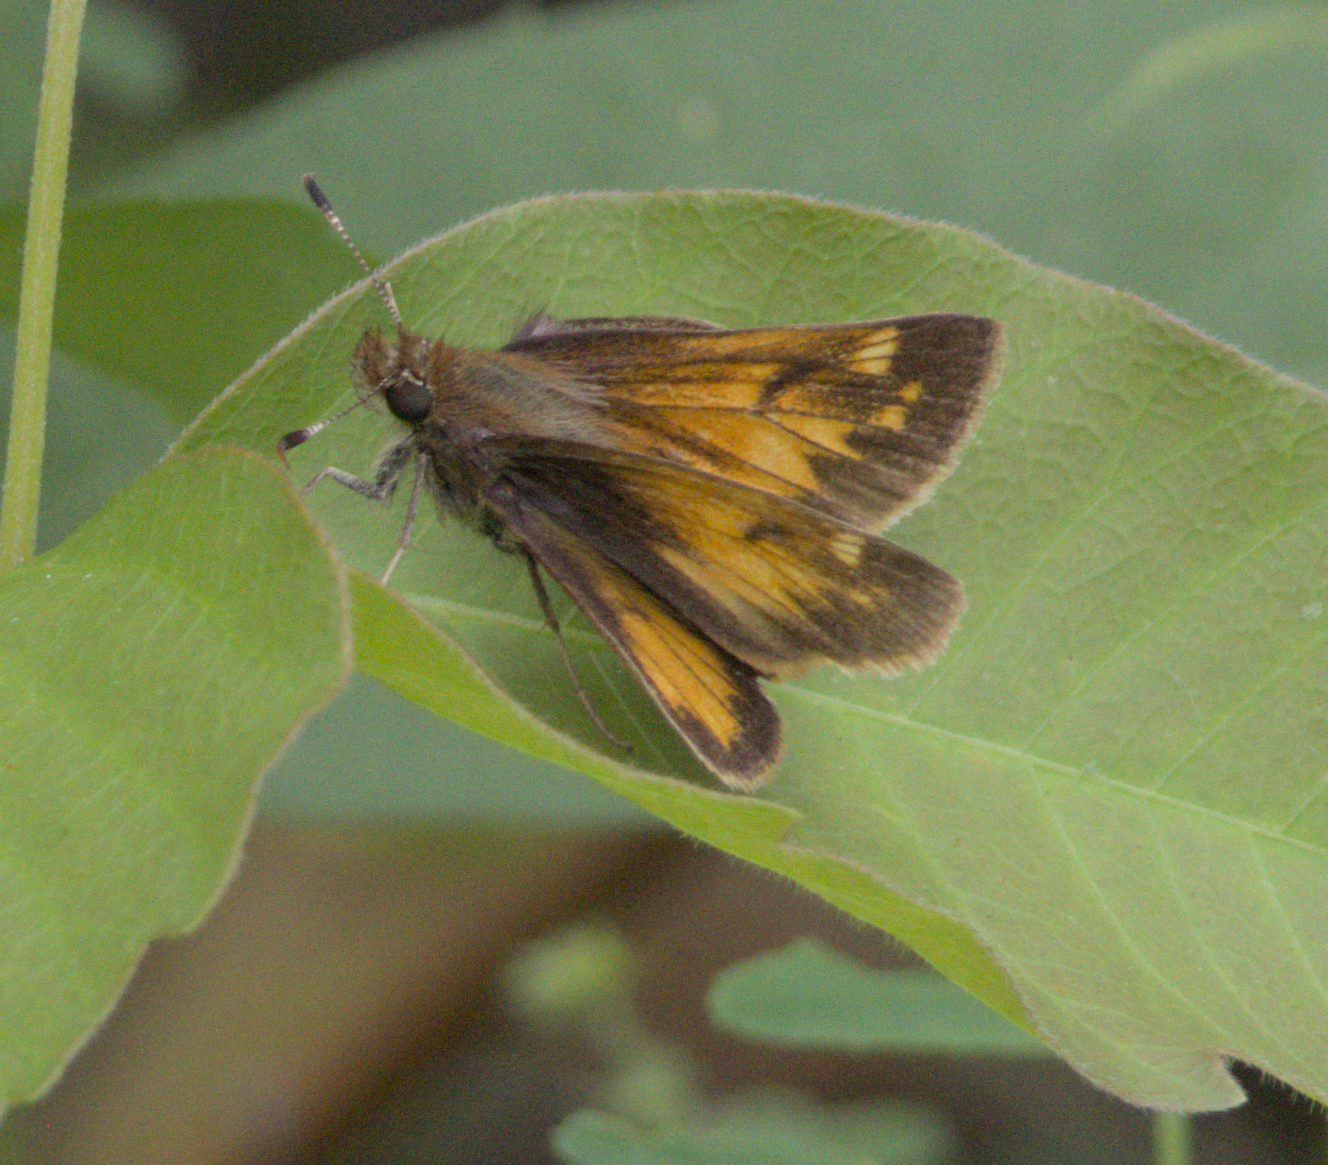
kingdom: Animalia
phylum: Arthropoda
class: Insecta
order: Lepidoptera
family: Hesperiidae
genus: Lon
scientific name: Lon hobomok
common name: Hobomok skipper
